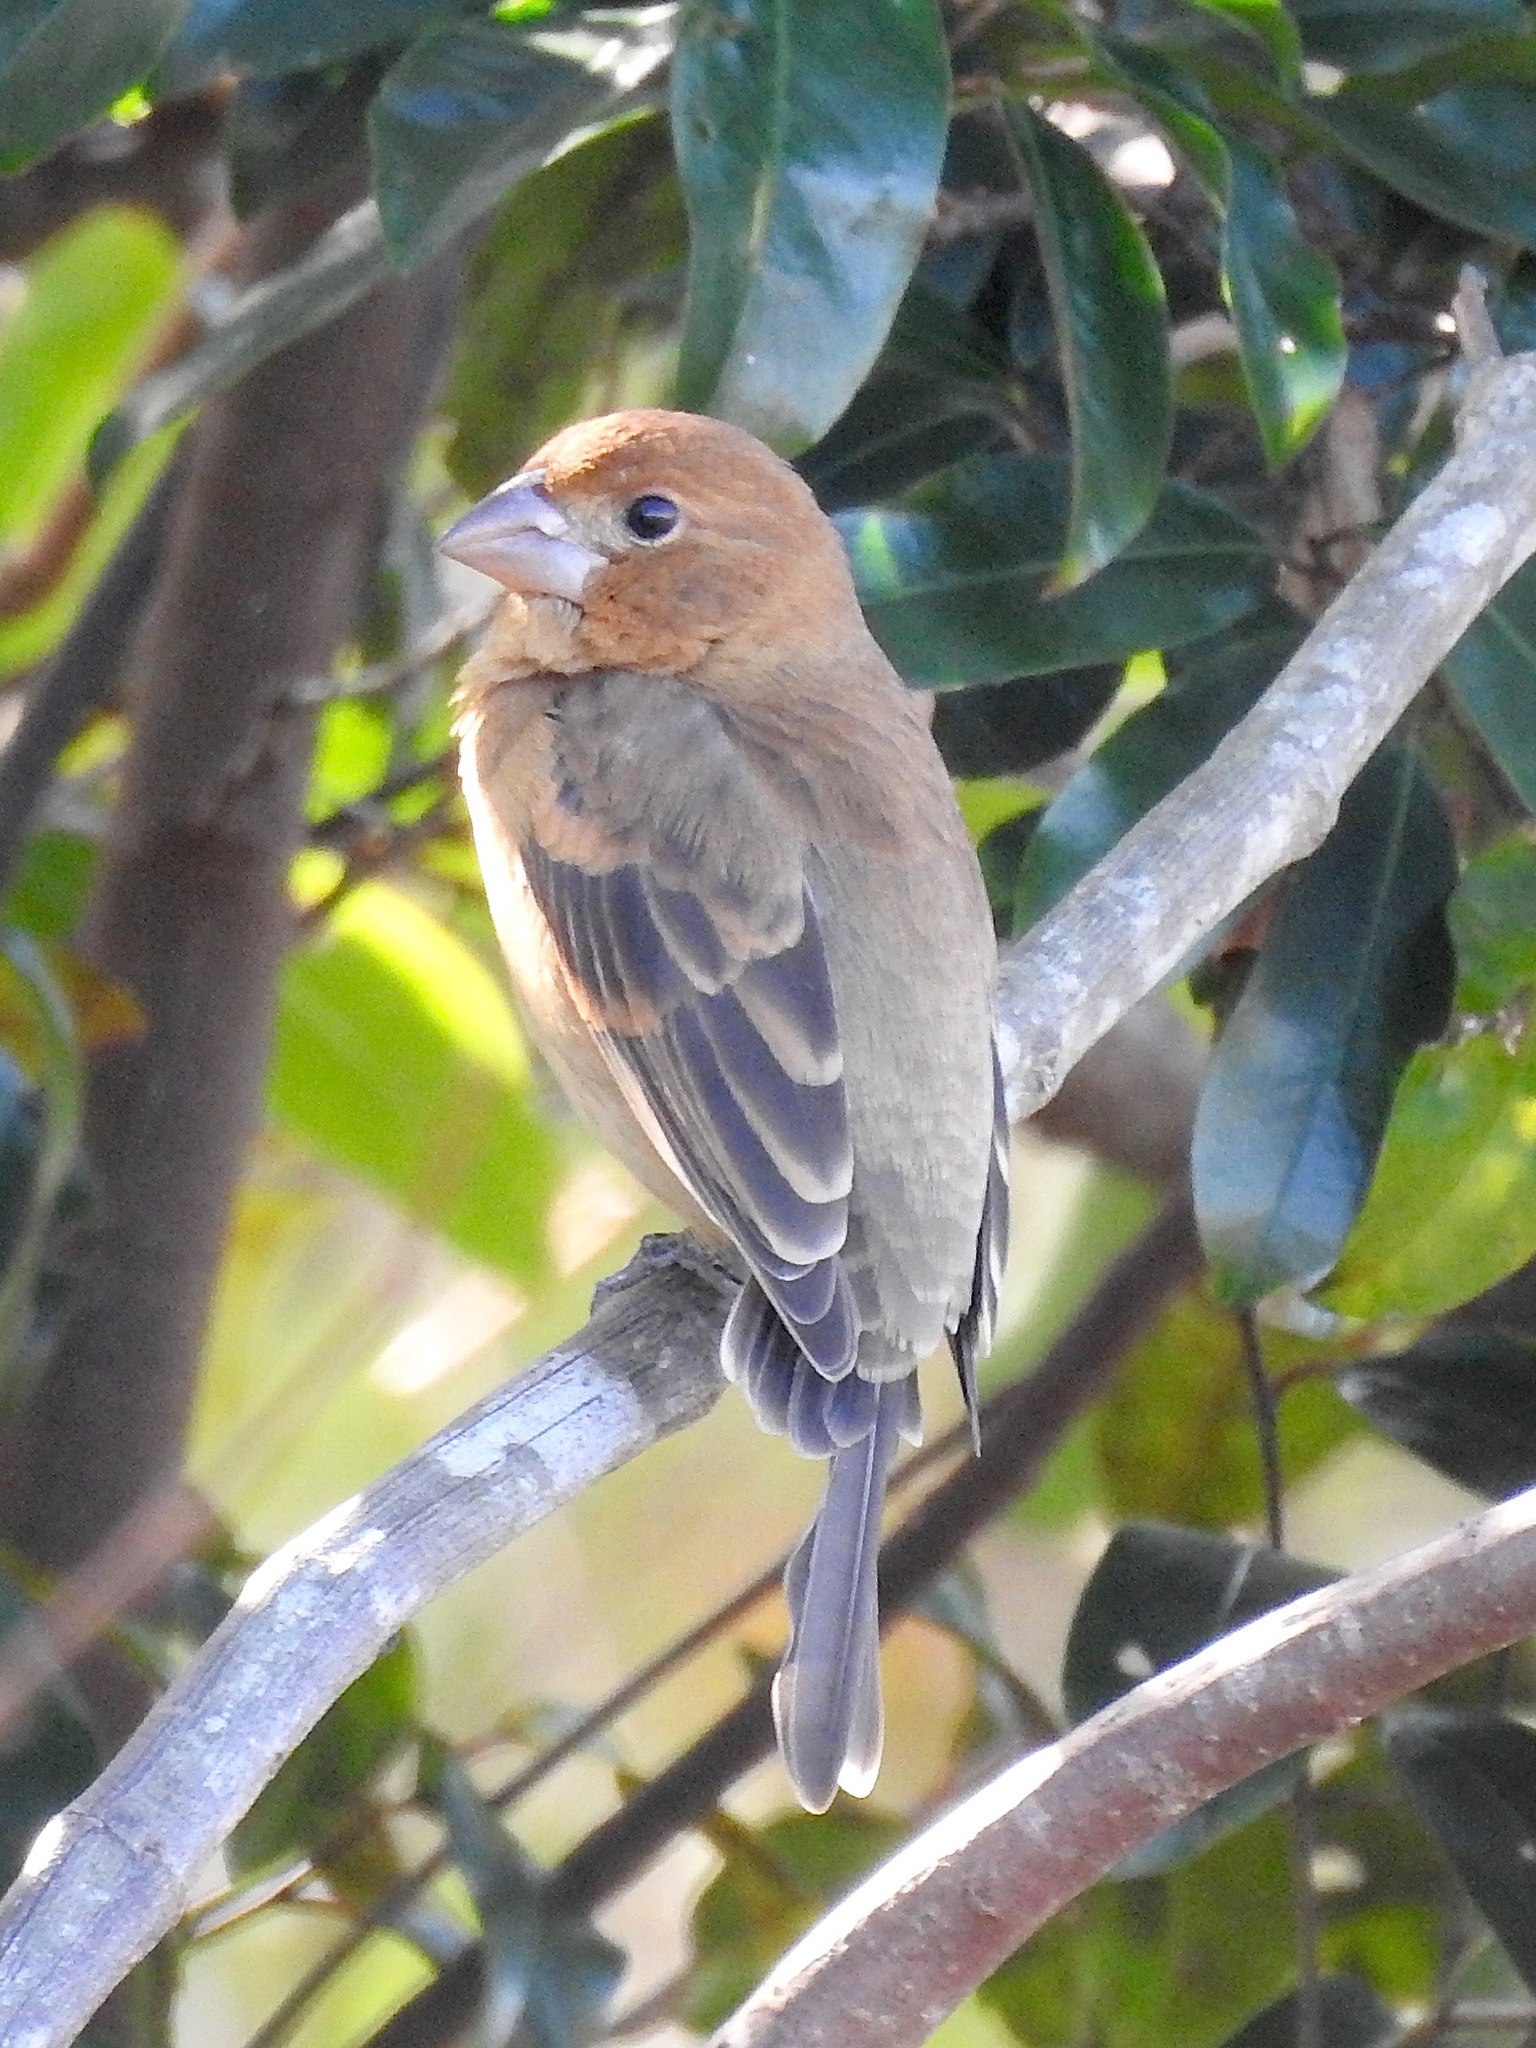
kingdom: Animalia
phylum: Chordata
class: Aves
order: Passeriformes
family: Cardinalidae
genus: Passerina
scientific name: Passerina caerulea
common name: Blue grosbeak
